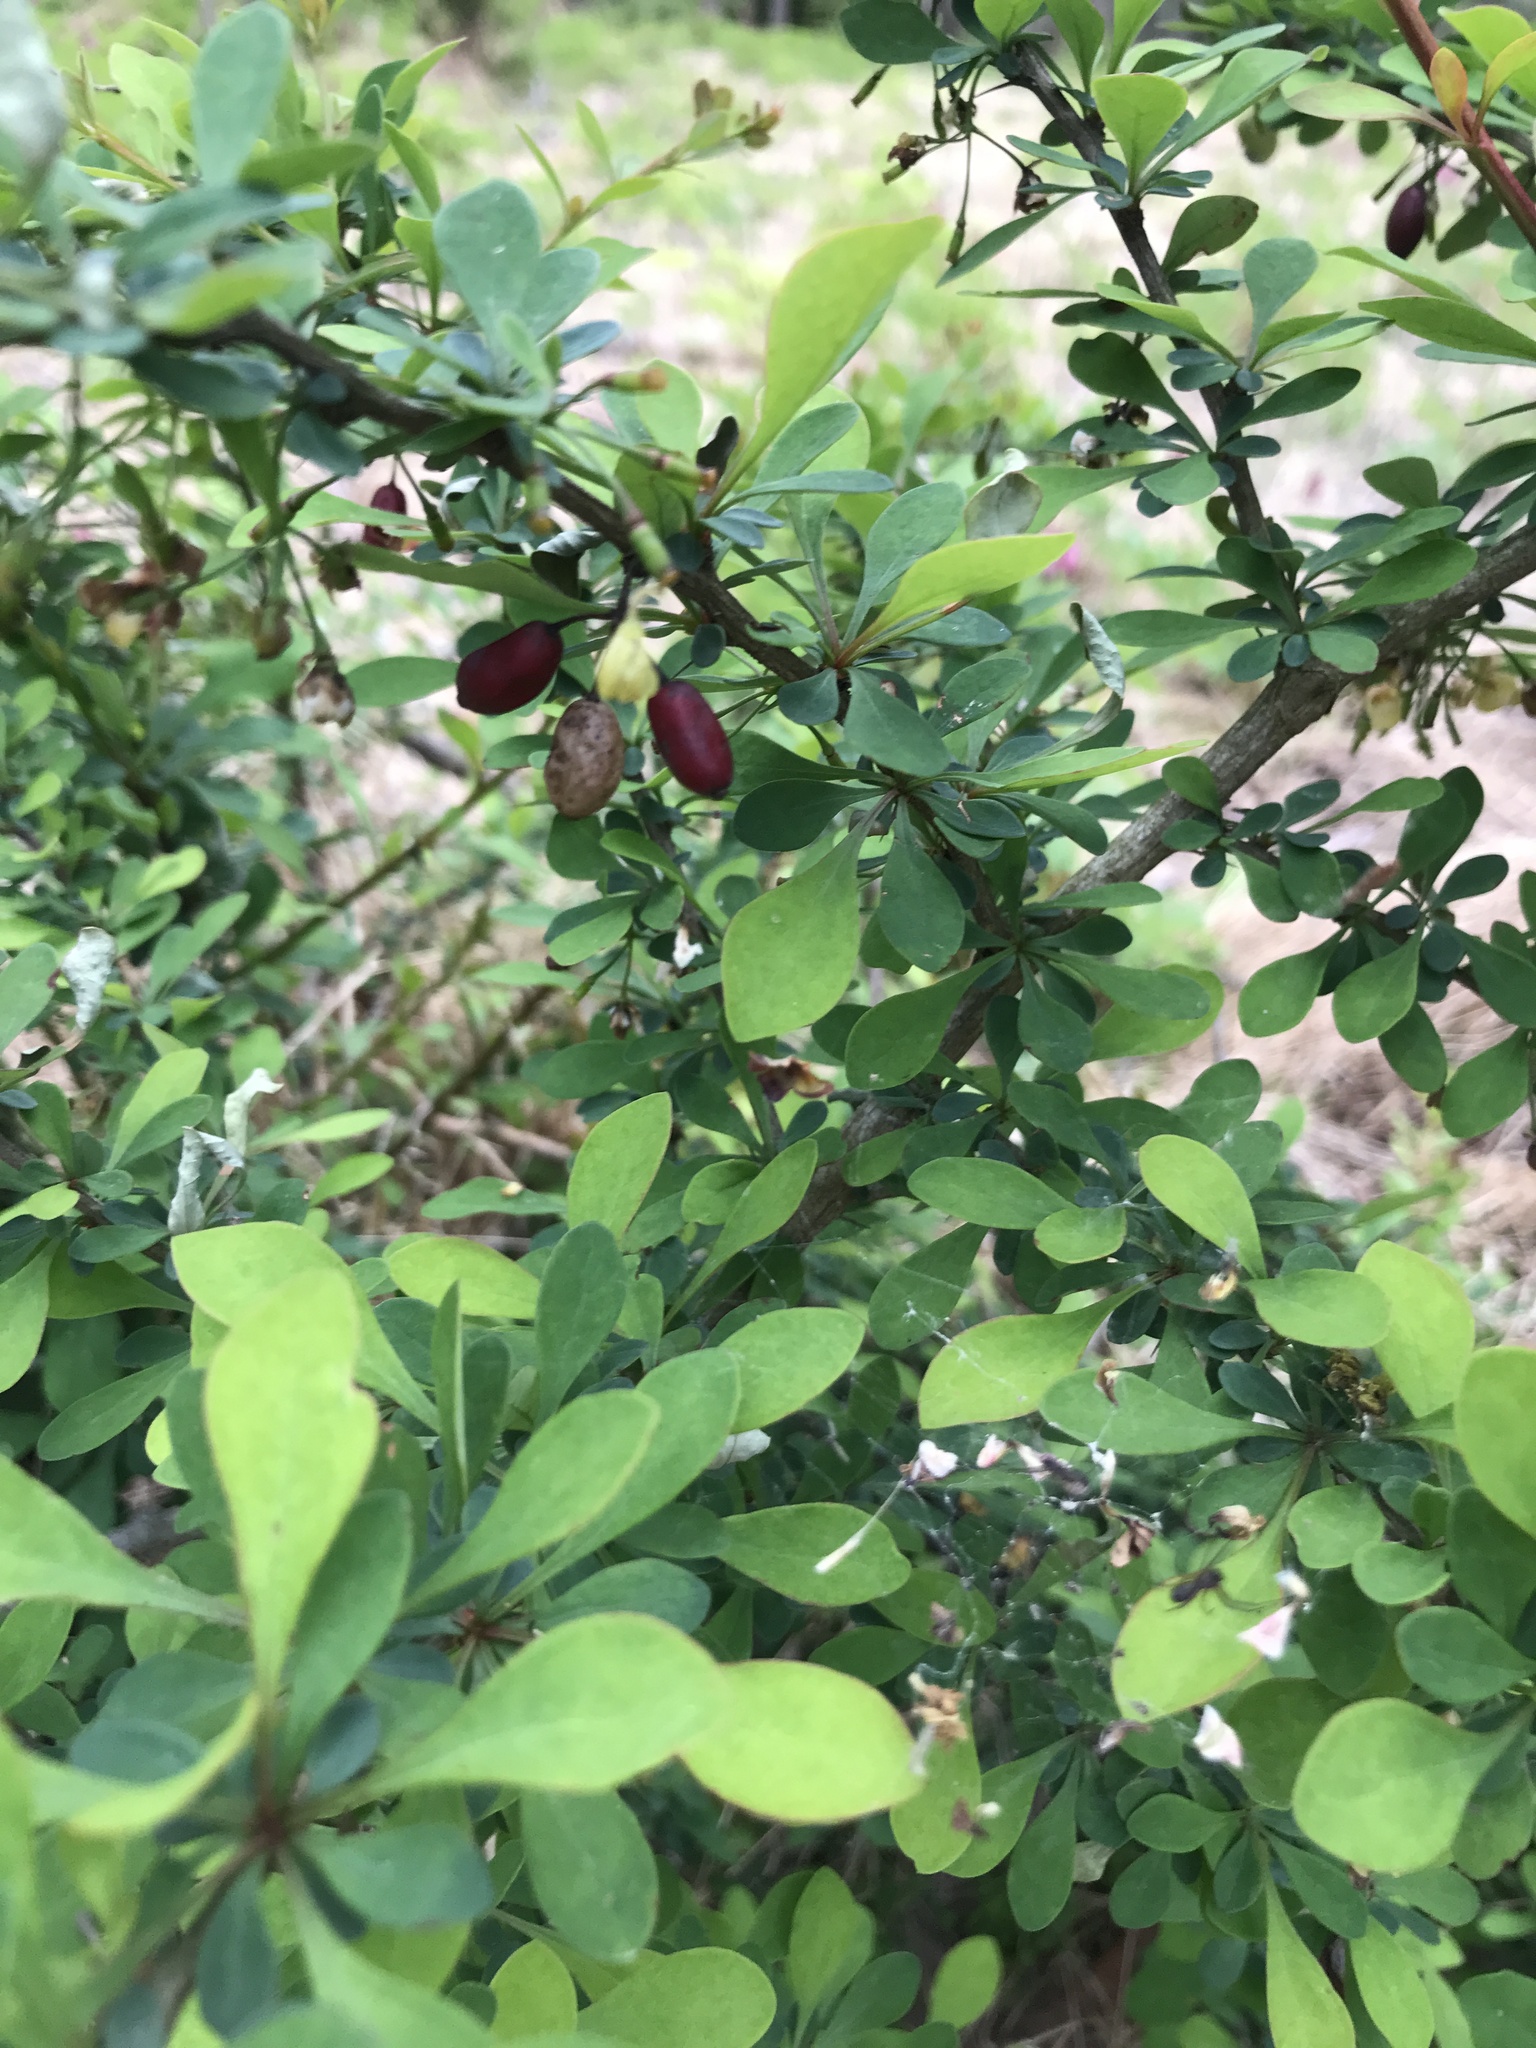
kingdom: Plantae
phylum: Tracheophyta
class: Magnoliopsida
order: Ranunculales
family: Berberidaceae
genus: Berberis
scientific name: Berberis thunbergii
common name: Japanese barberry
